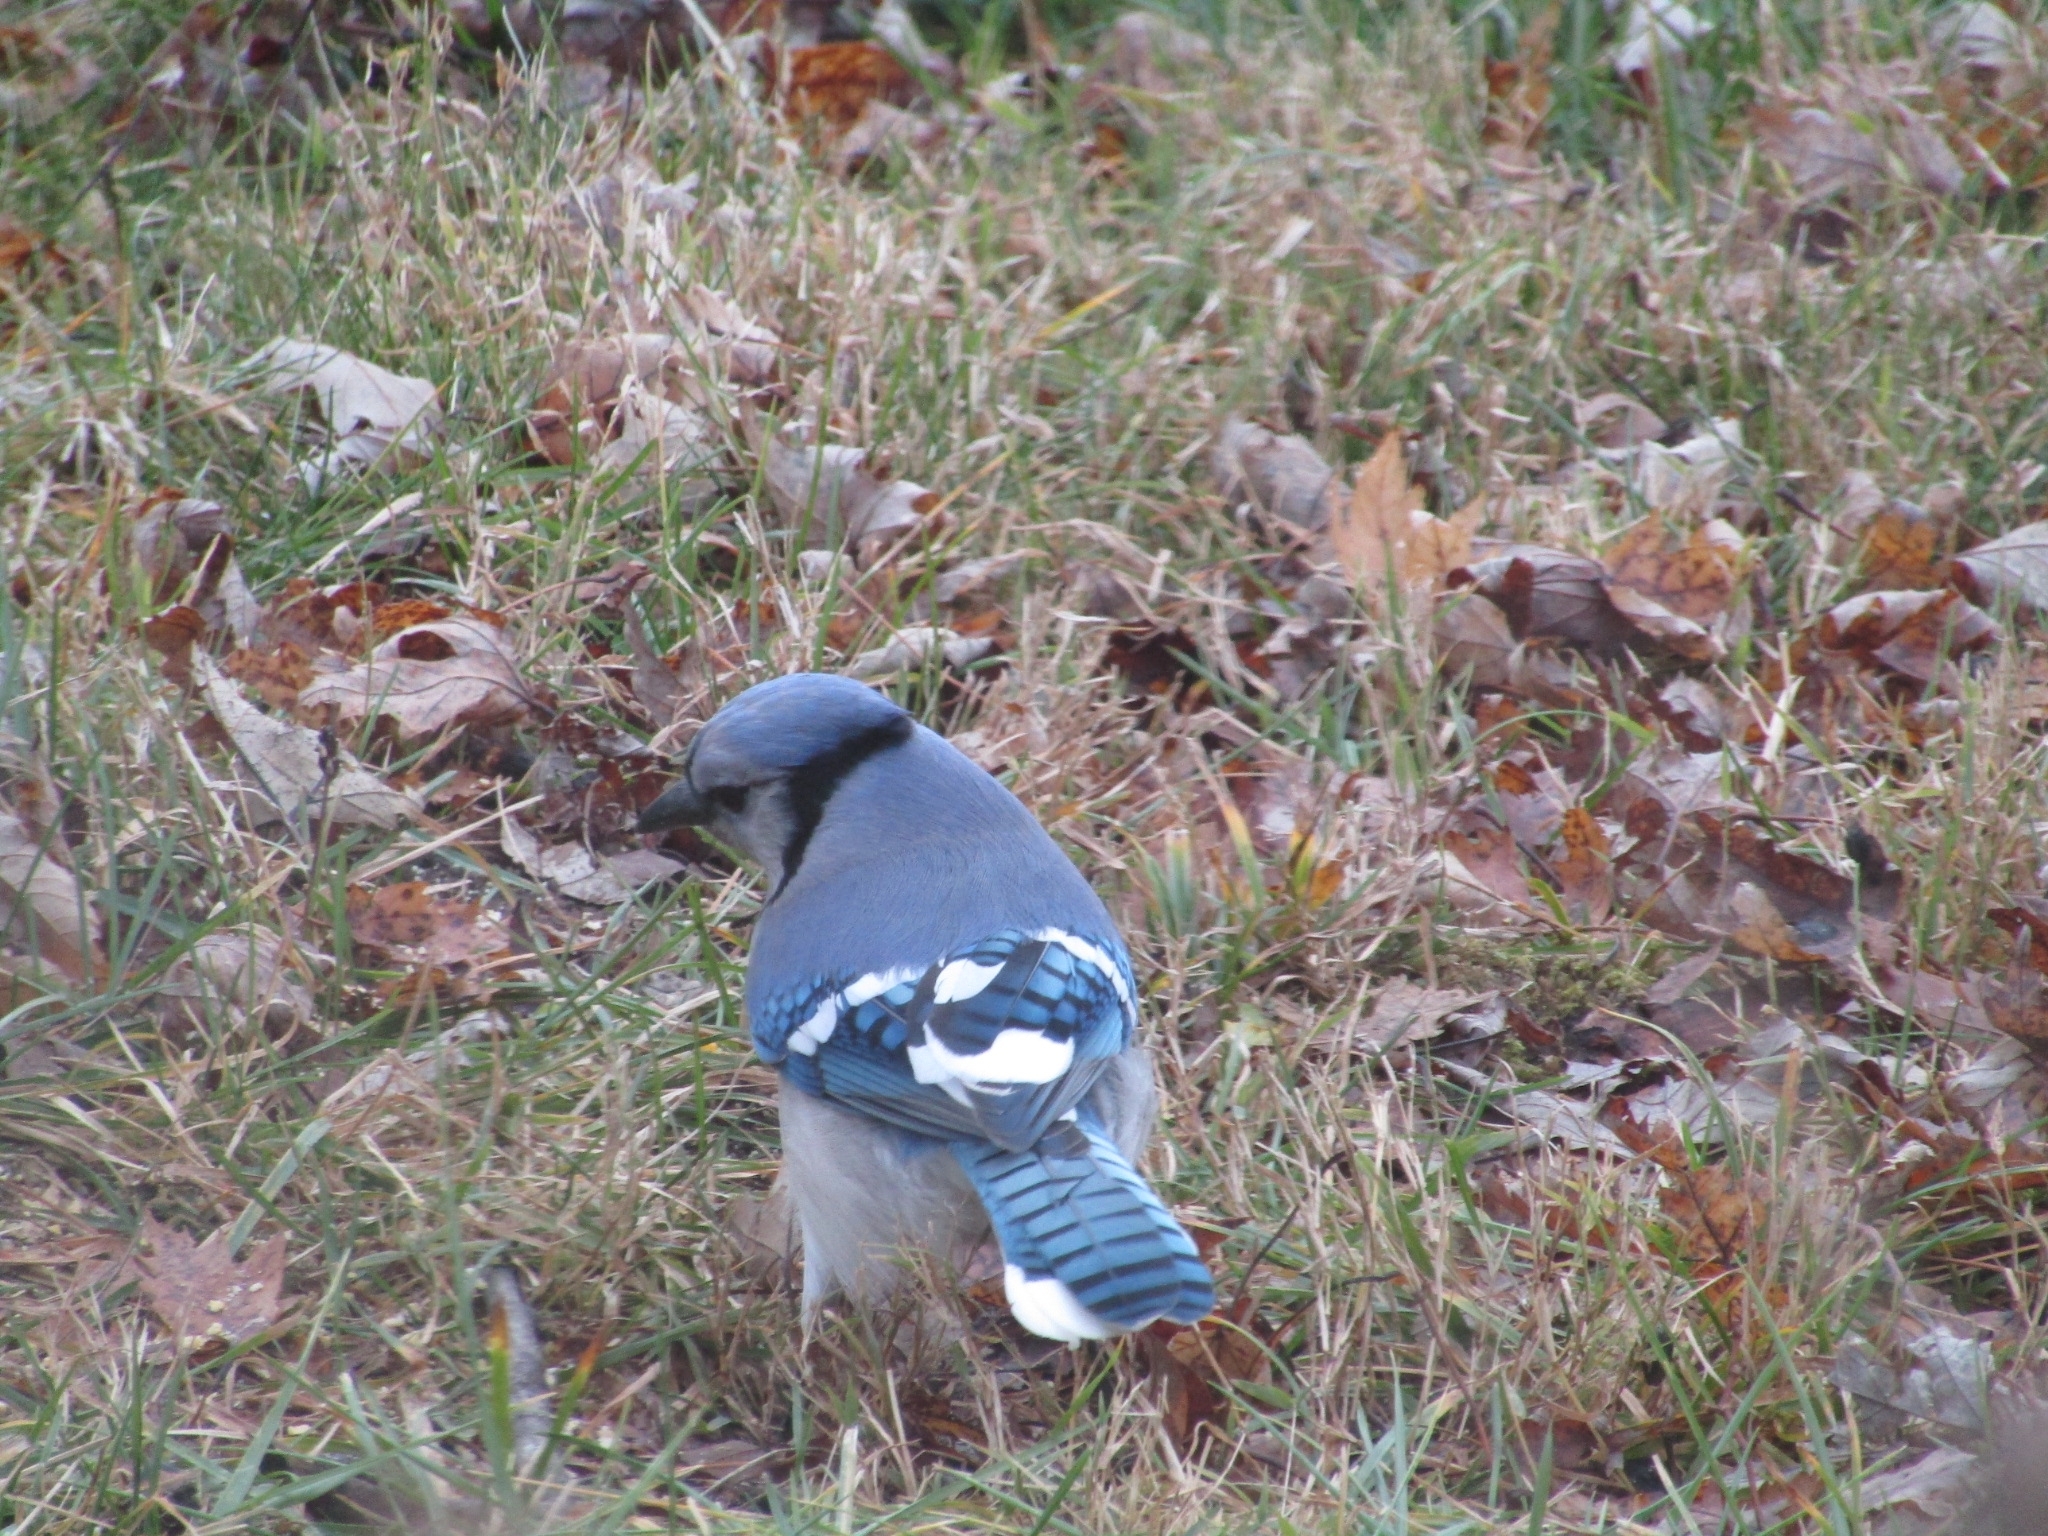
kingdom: Animalia
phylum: Chordata
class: Aves
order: Passeriformes
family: Corvidae
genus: Cyanocitta
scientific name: Cyanocitta cristata
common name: Blue jay
